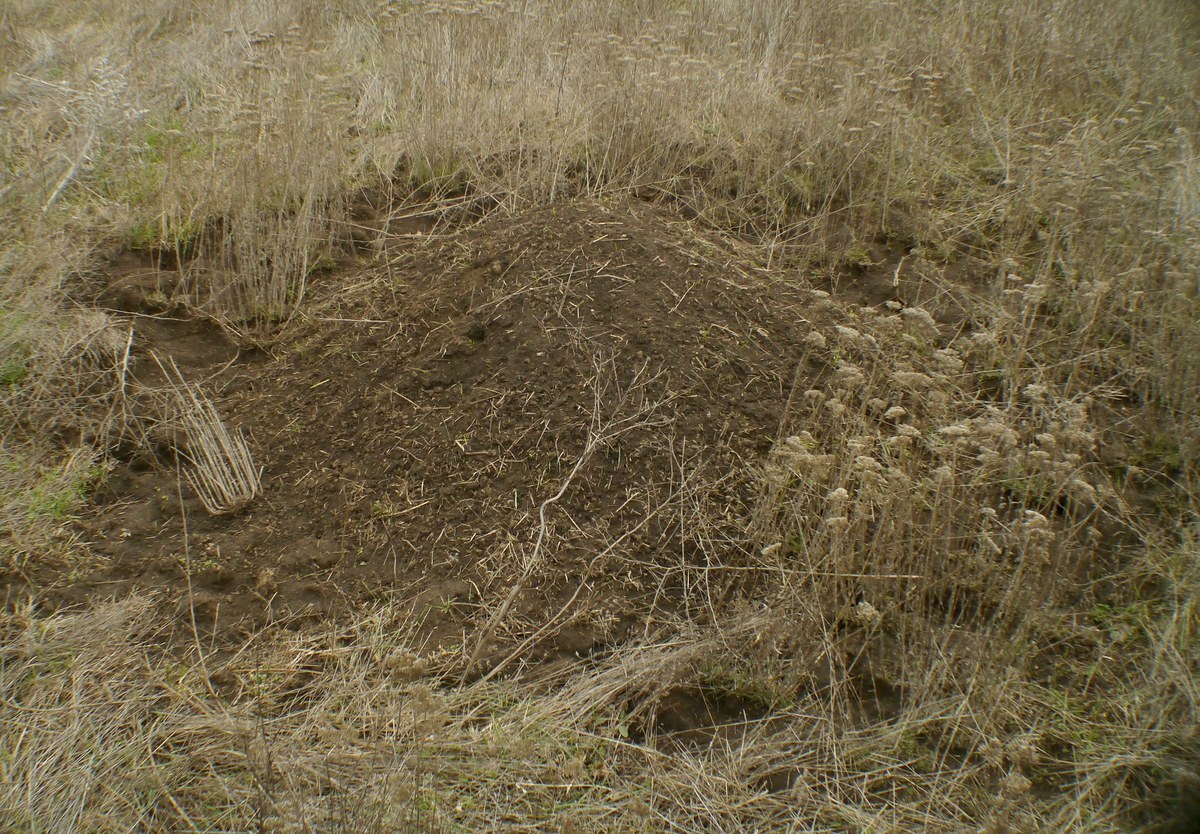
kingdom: Animalia
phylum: Chordata
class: Mammalia
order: Rodentia
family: Muridae
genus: Mus
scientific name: Mus spicilegus
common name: Mound-building mouse
